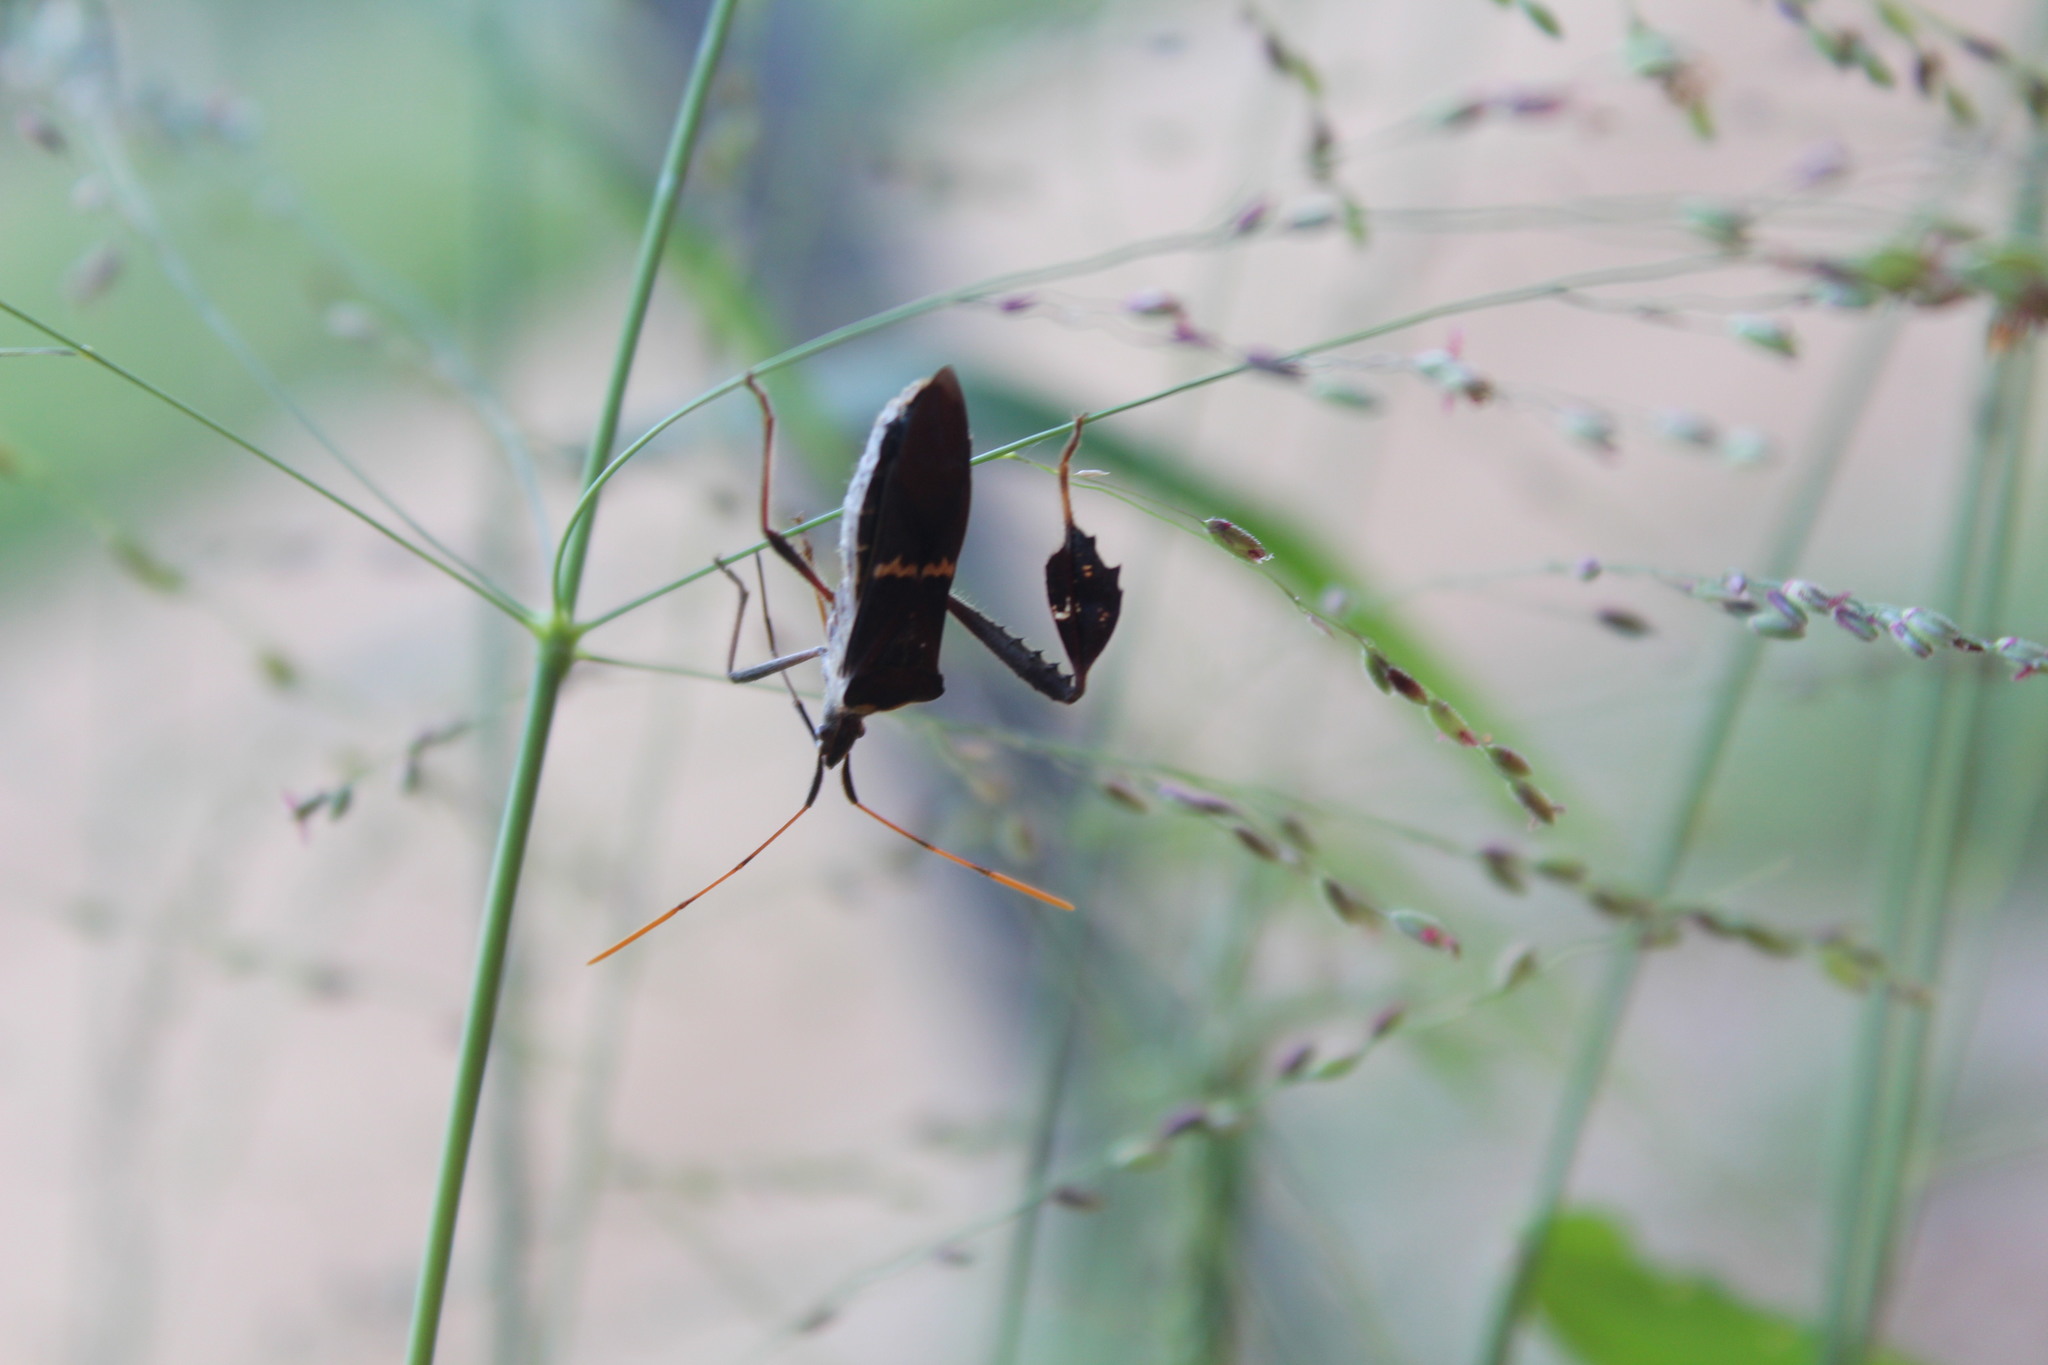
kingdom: Animalia
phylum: Arthropoda
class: Insecta
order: Hemiptera
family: Coreidae
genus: Leptoglossus
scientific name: Leptoglossus zonatus
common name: Large-legged bug
